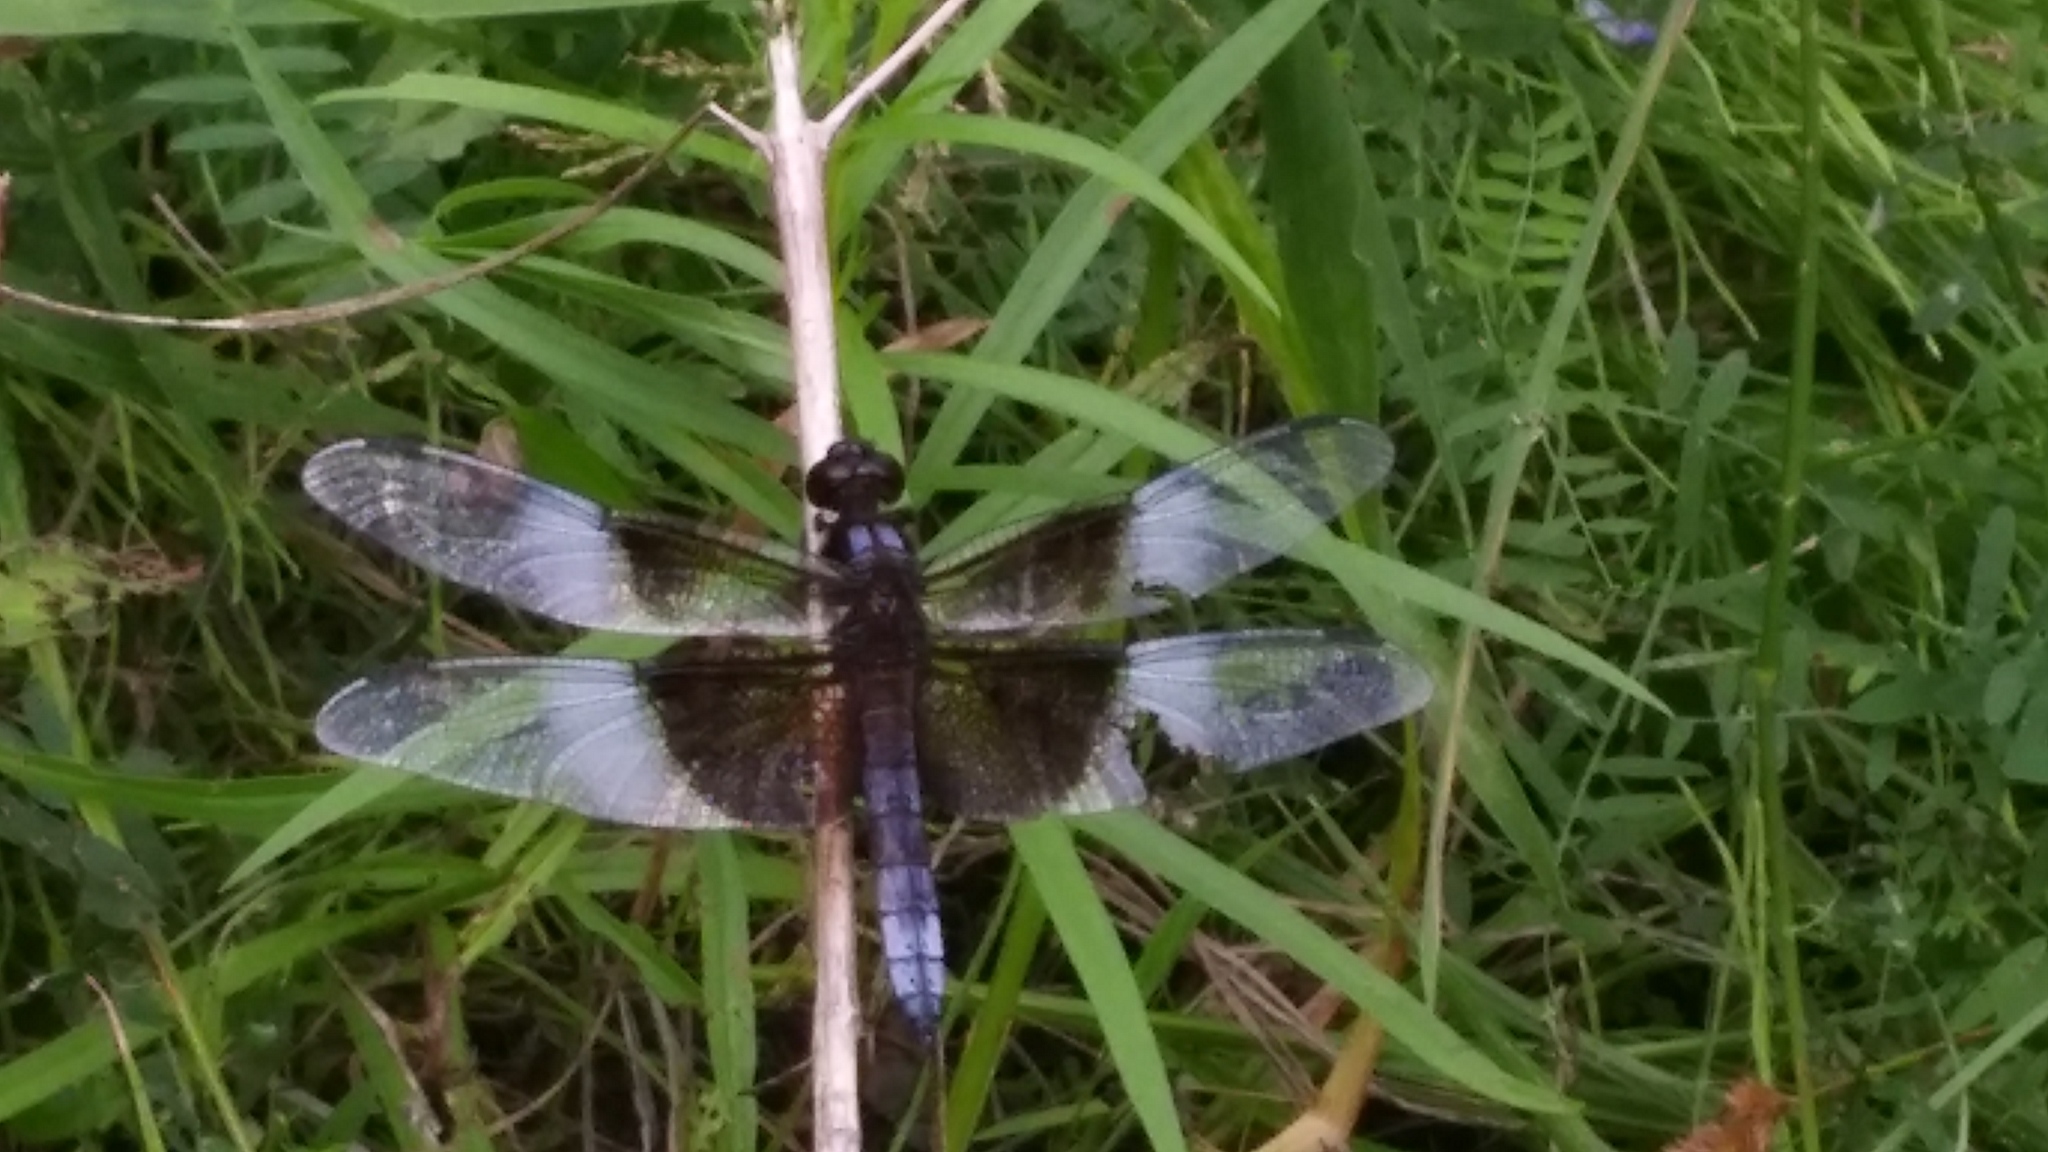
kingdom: Animalia
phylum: Arthropoda
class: Insecta
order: Odonata
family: Libellulidae
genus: Libellula
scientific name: Libellula luctuosa
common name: Widow skimmer
